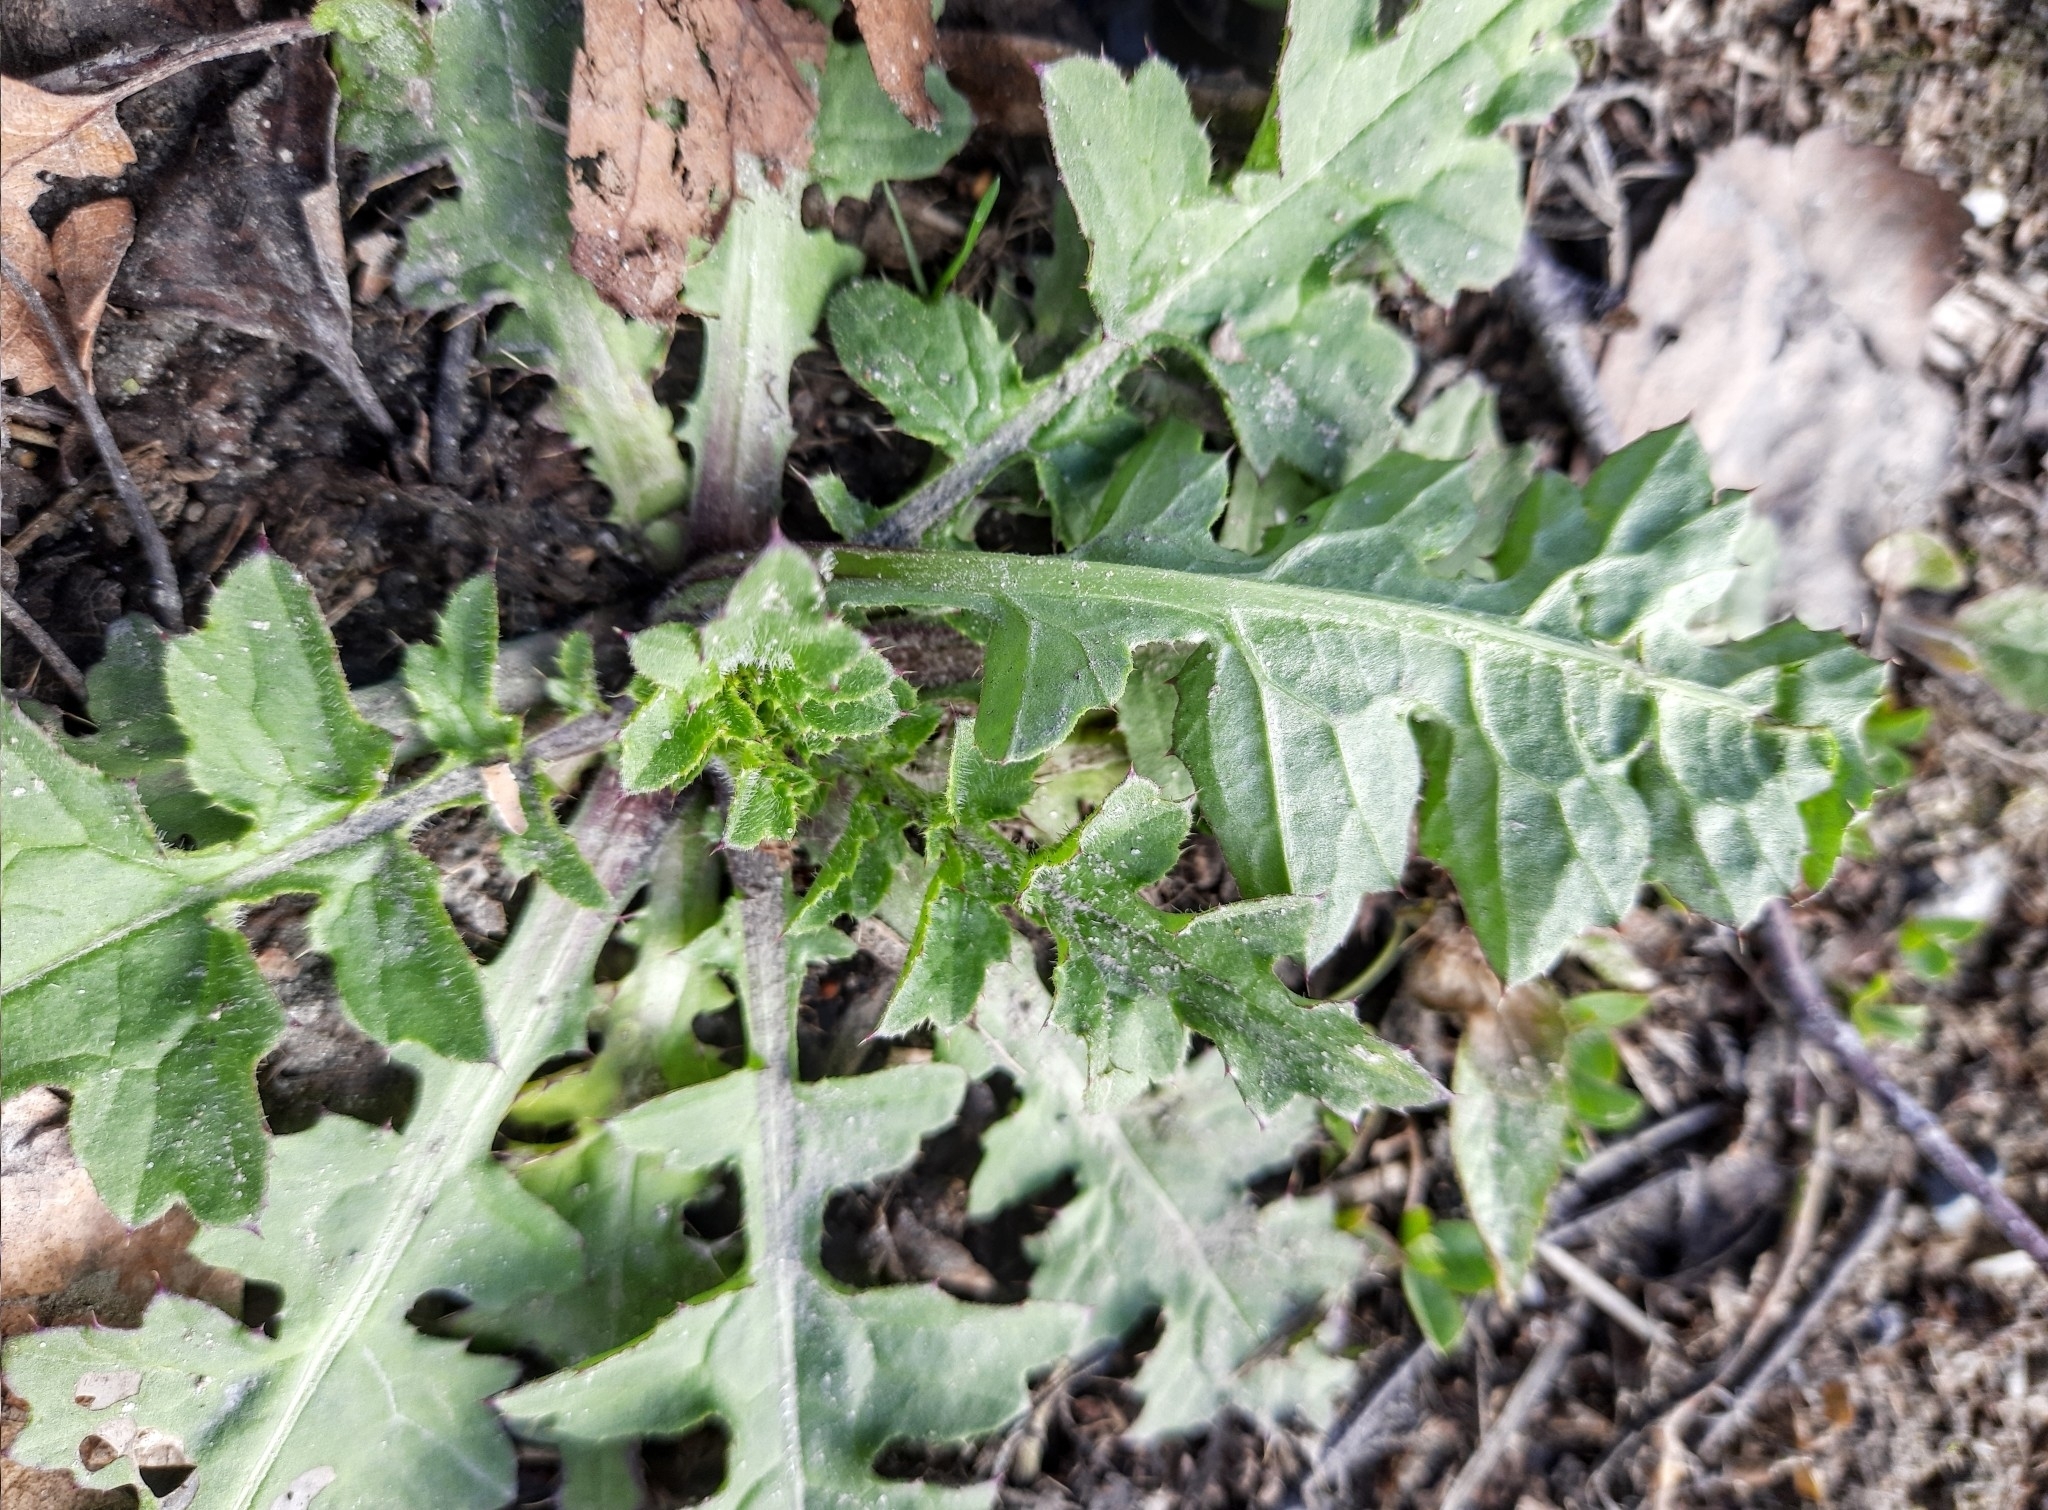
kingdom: Plantae
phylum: Tracheophyta
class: Magnoliopsida
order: Asterales
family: Asteraceae
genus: Carduus
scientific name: Carduus crispus
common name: Welted thistle
